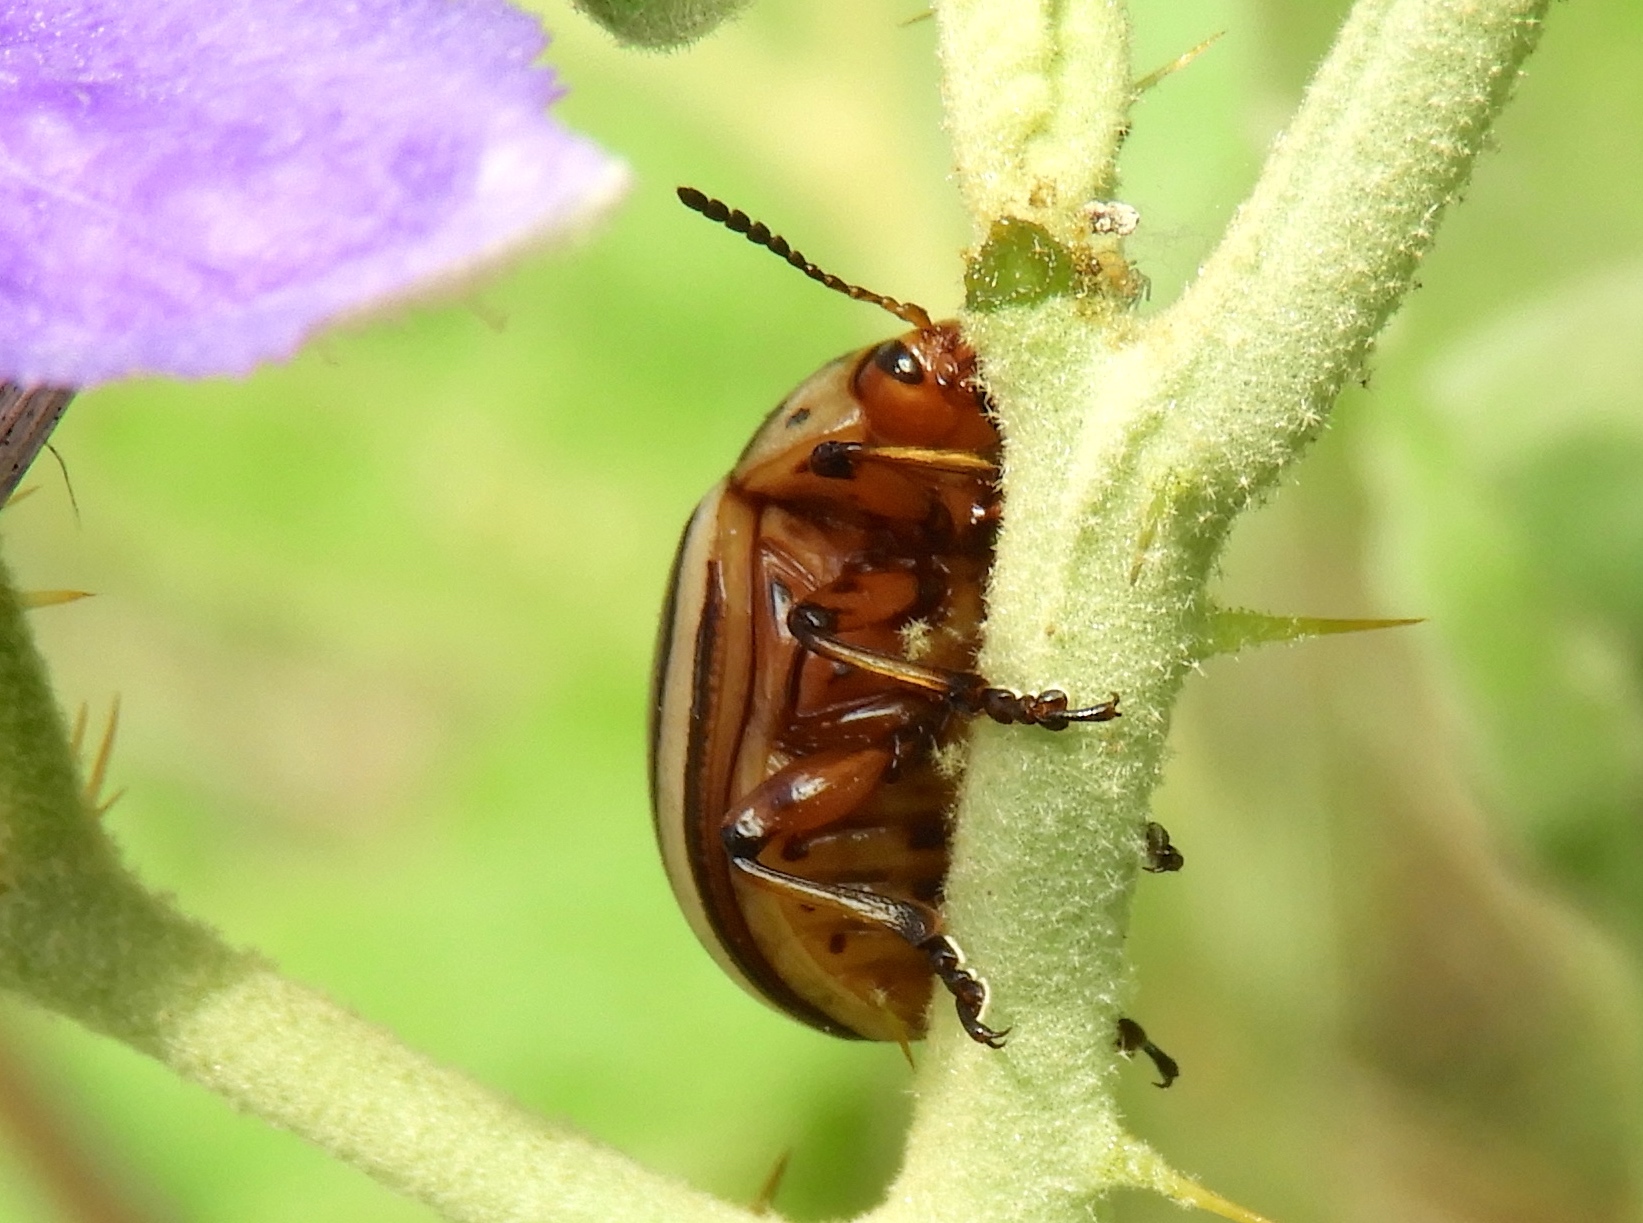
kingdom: Animalia
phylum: Arthropoda
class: Insecta
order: Coleoptera
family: Chrysomelidae
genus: Leptinotarsa
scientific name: Leptinotarsa decemlineata
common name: Colorado potato beetle
